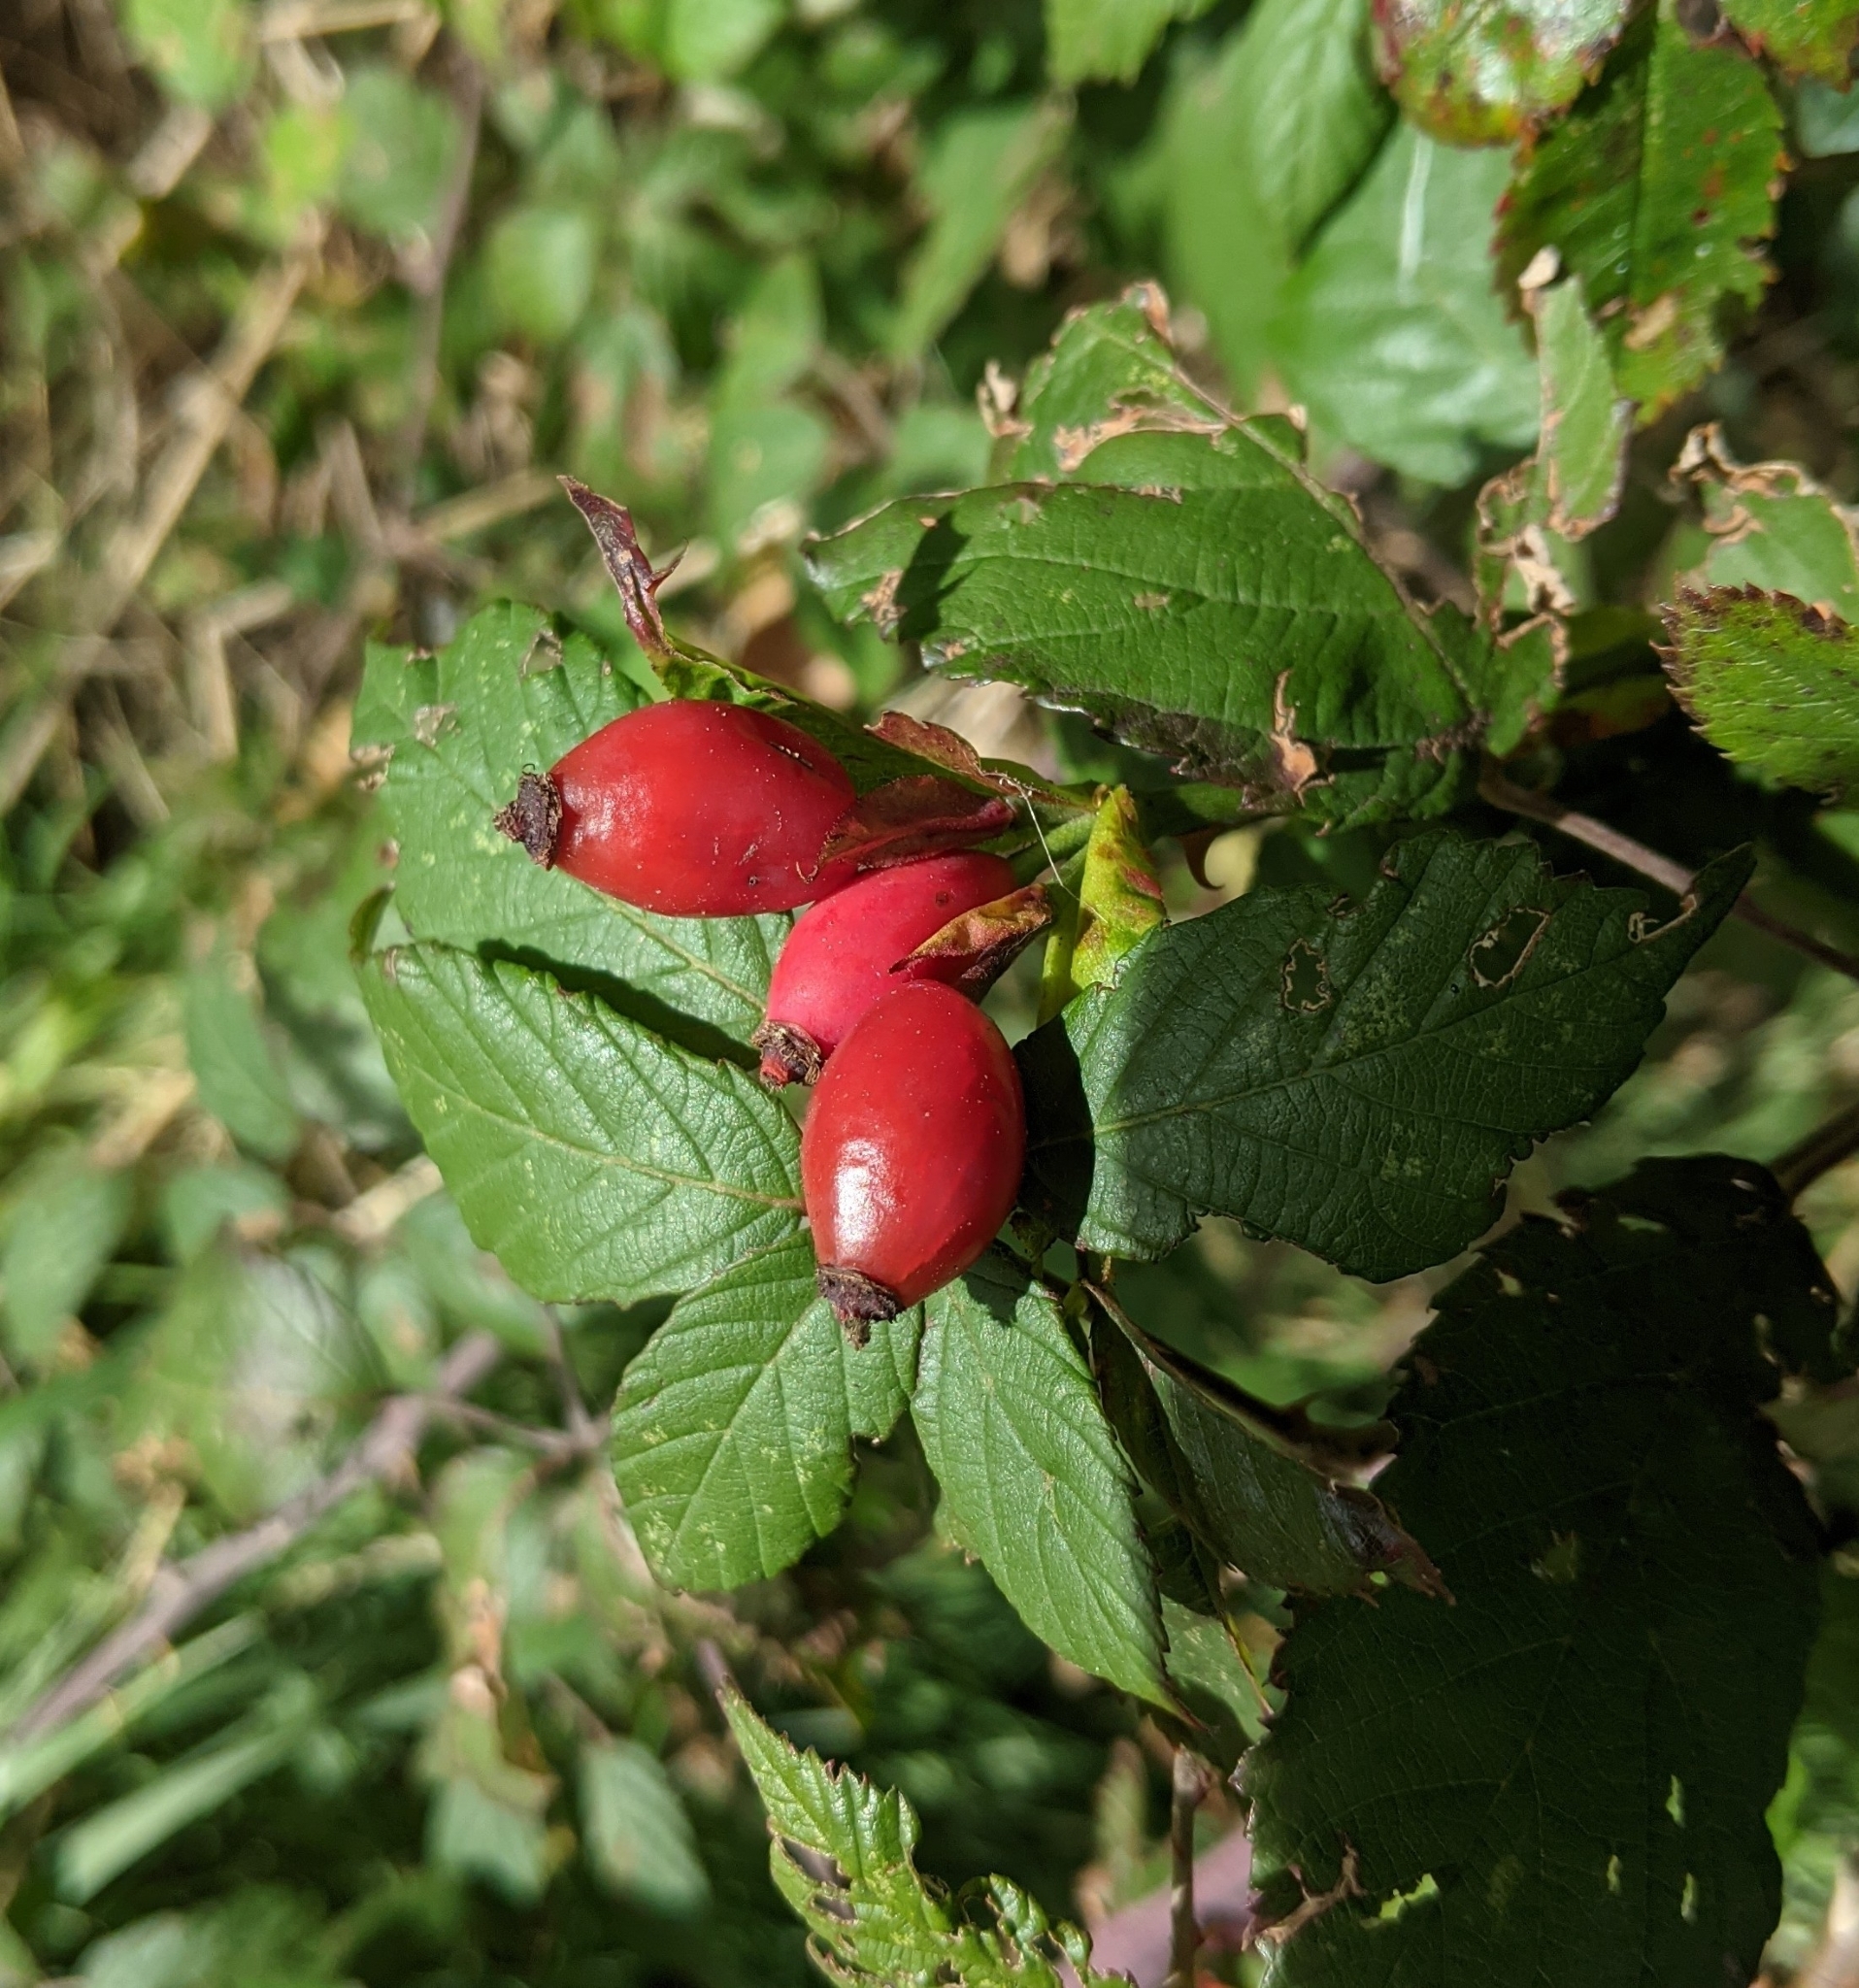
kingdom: Plantae
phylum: Tracheophyta
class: Magnoliopsida
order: Rosales
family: Rosaceae
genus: Rosa
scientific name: Rosa canina
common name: Dog rose
